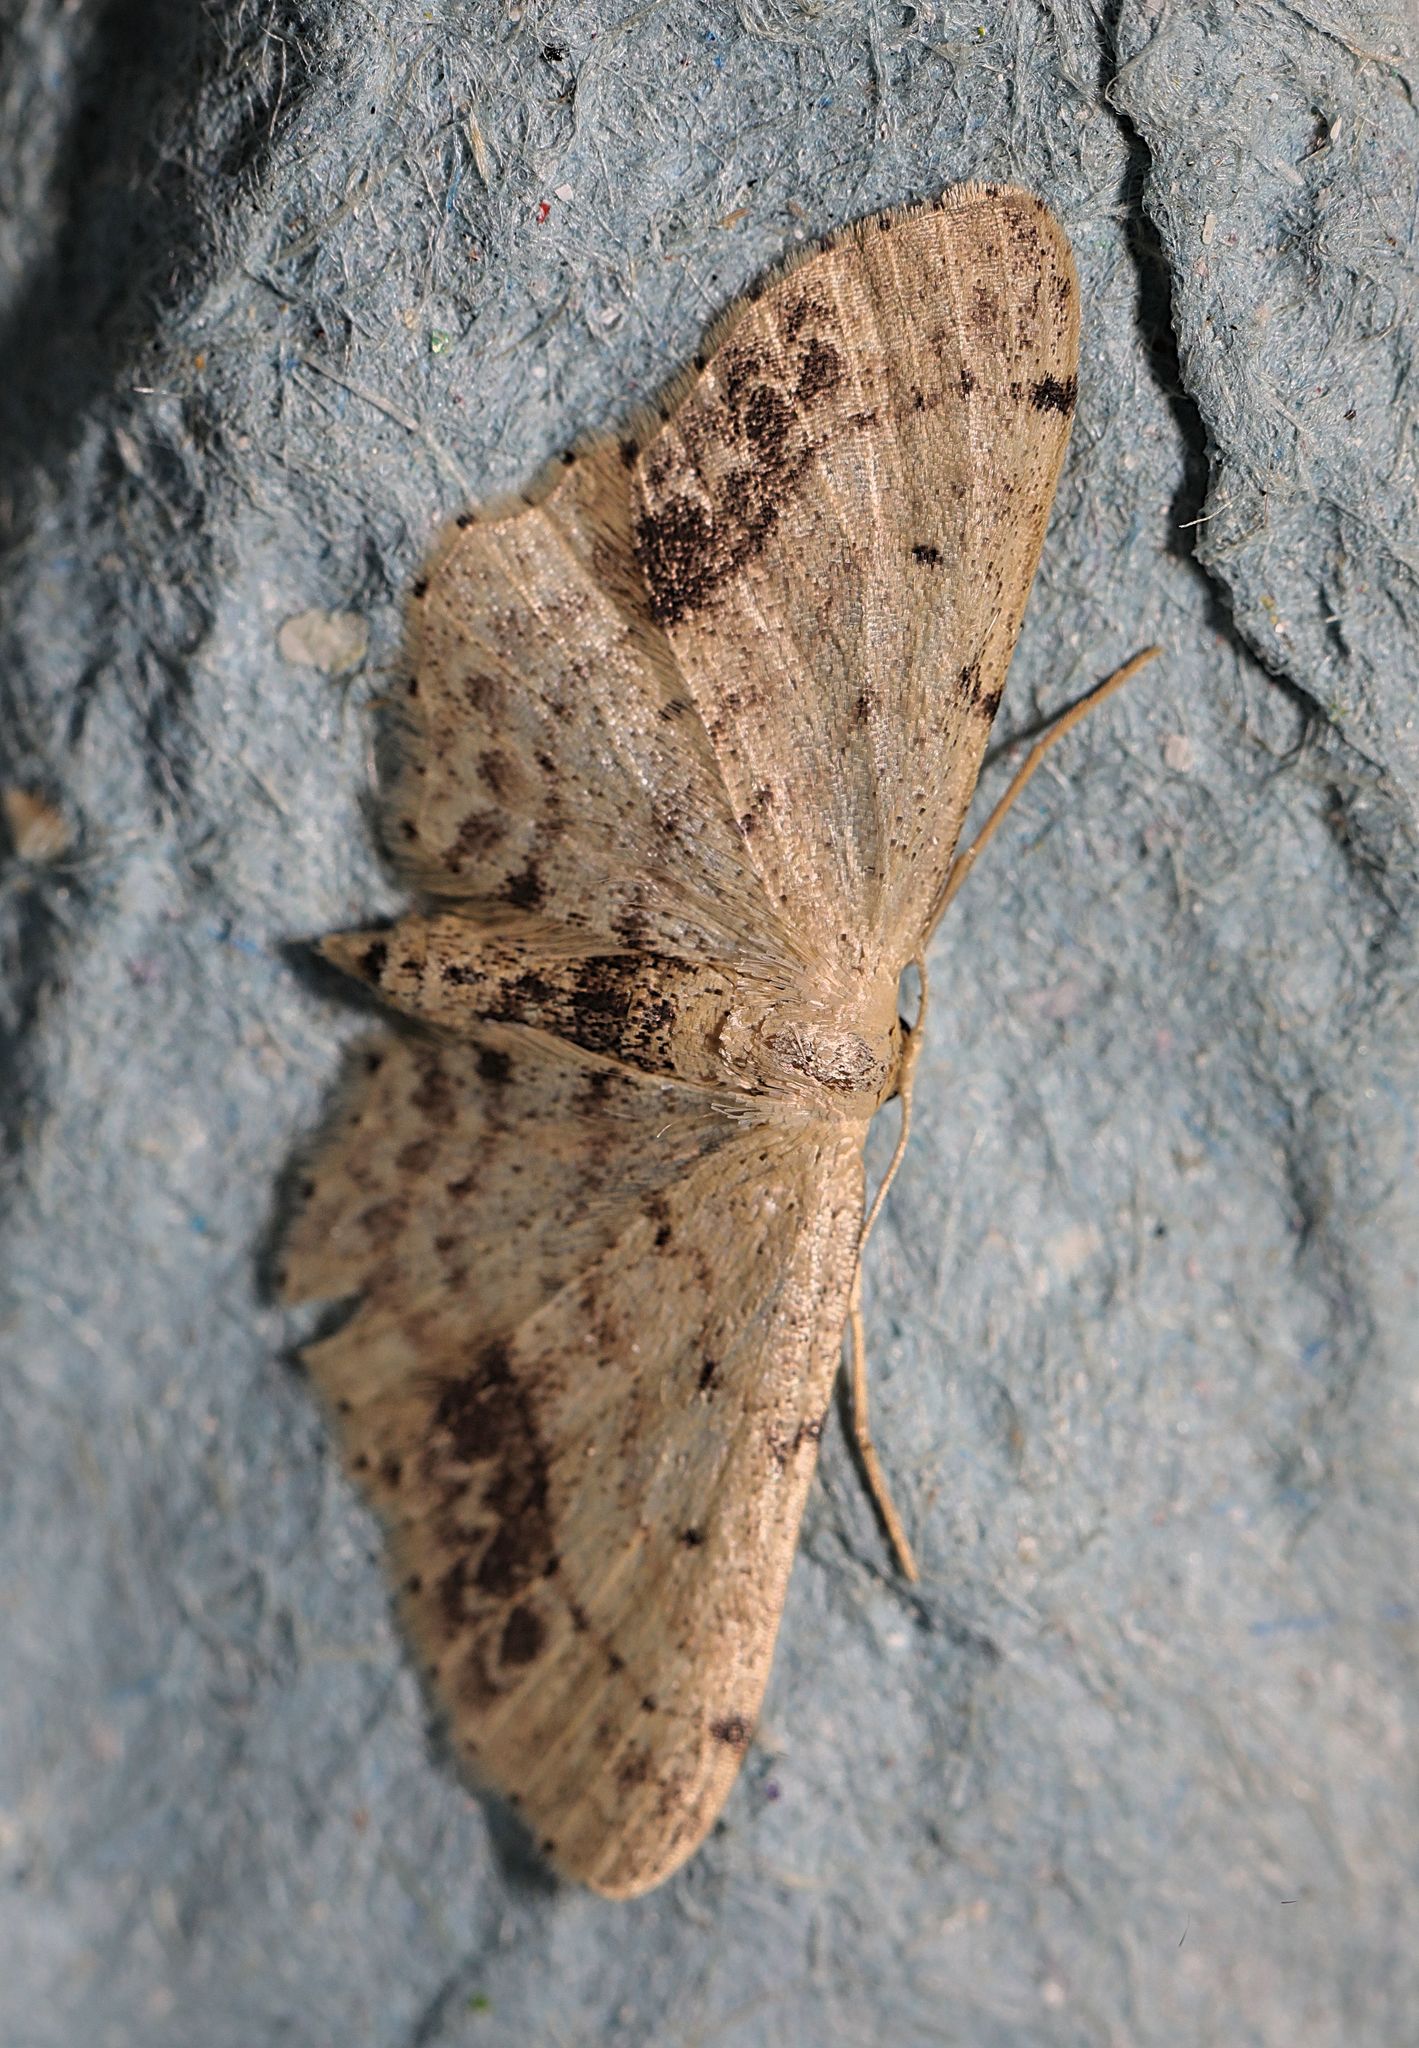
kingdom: Animalia
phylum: Arthropoda
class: Insecta
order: Lepidoptera
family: Geometridae
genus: Idaea
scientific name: Idaea dimidiata
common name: Single-dotted wave
